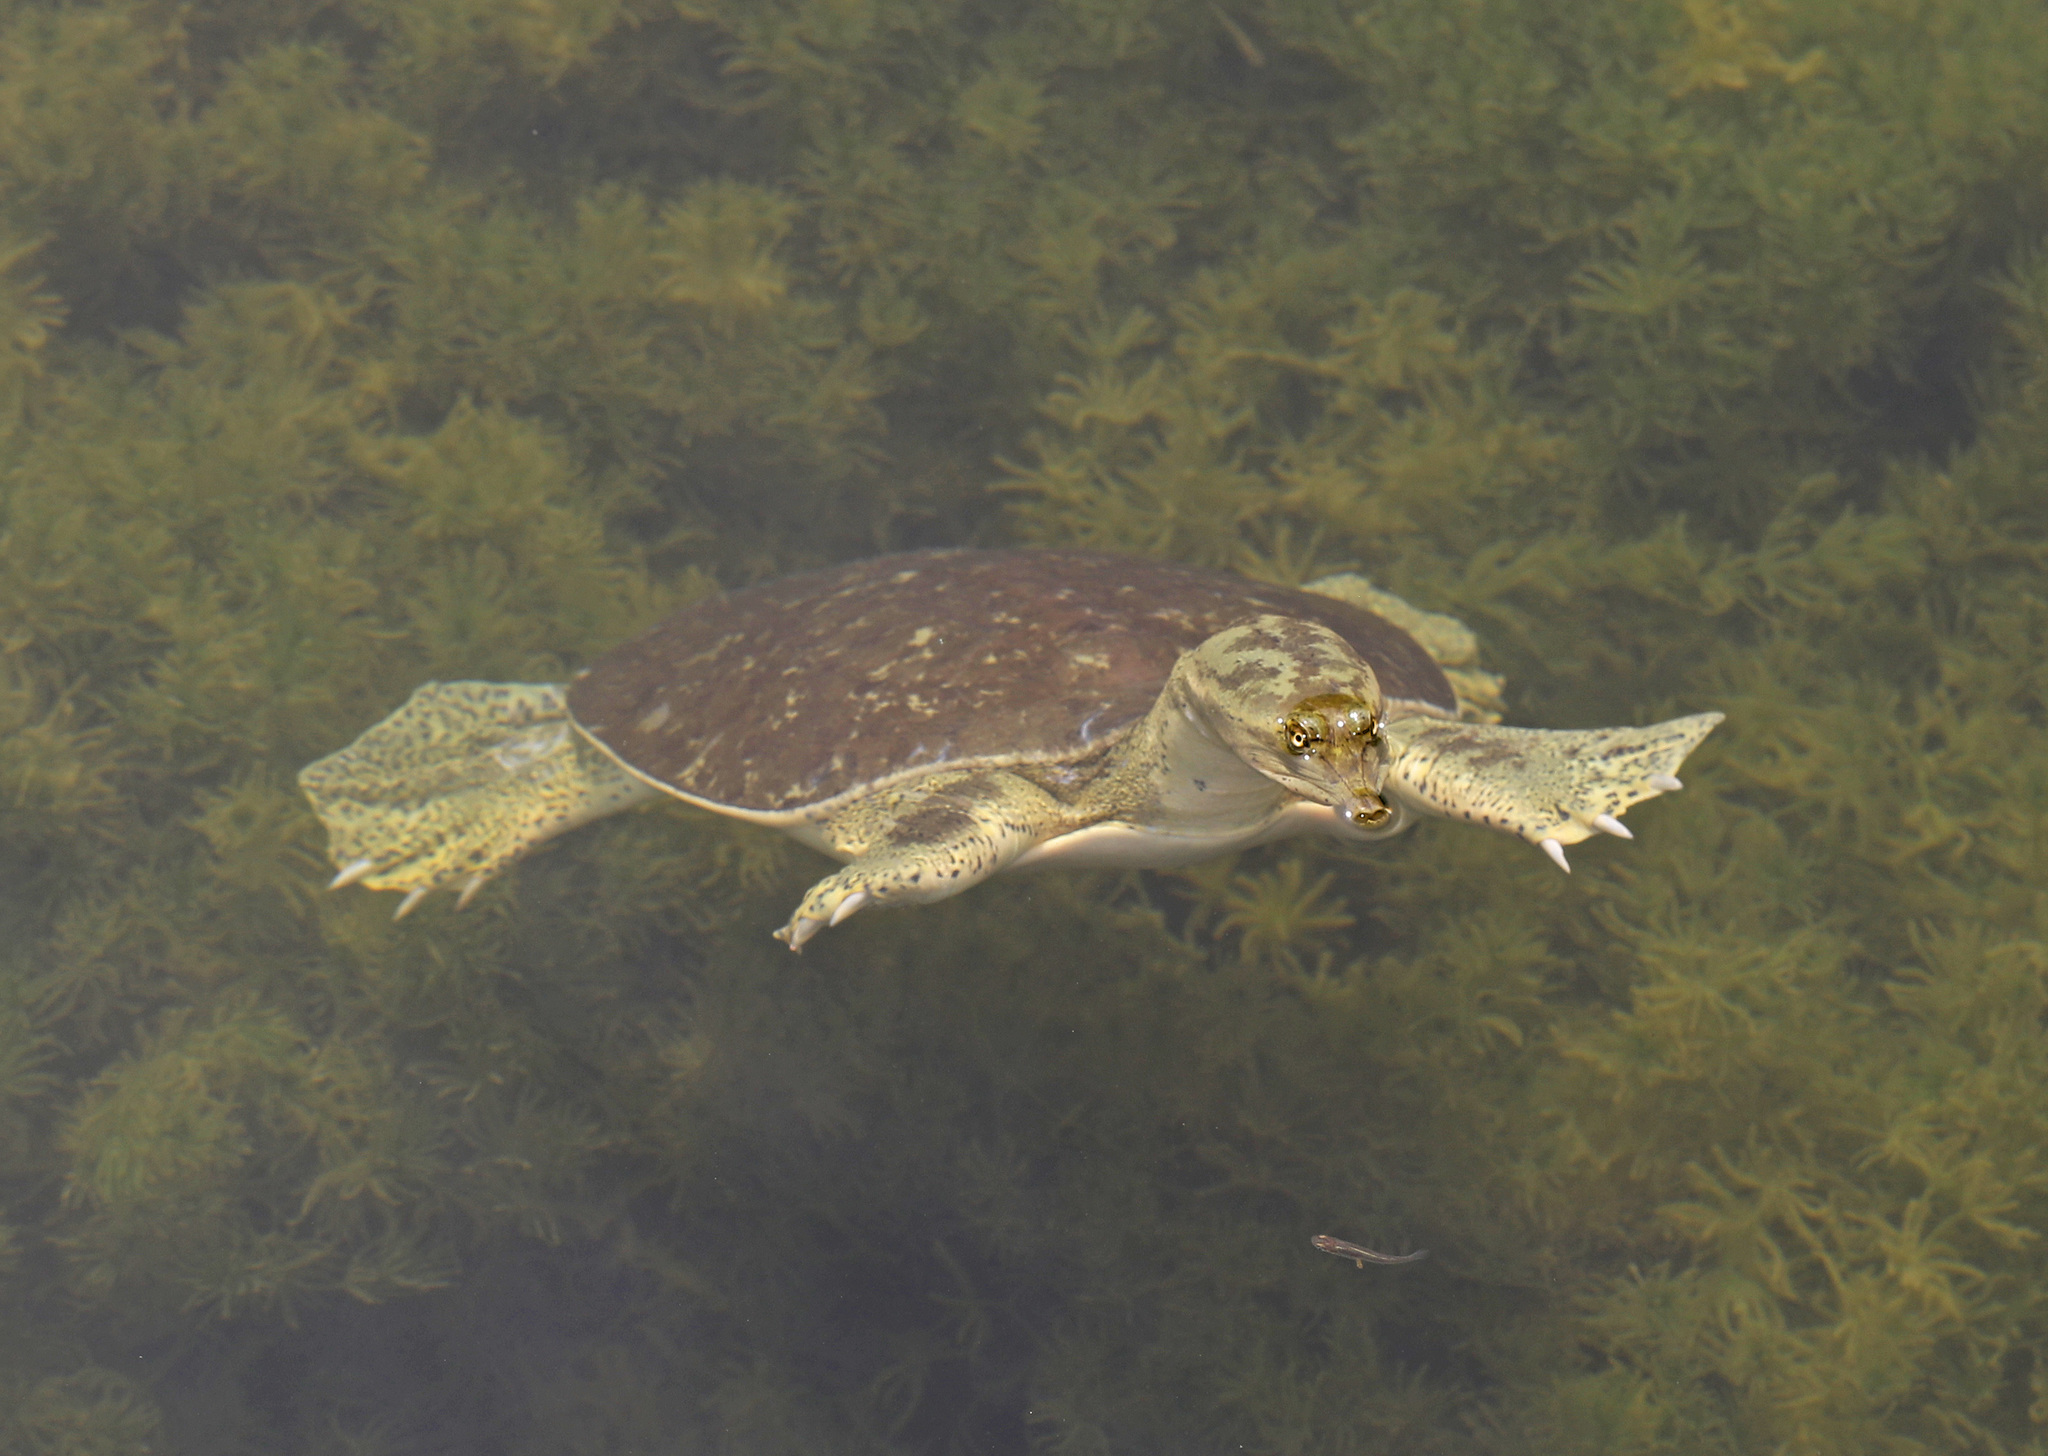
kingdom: Animalia
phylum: Chordata
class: Testudines
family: Trionychidae
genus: Apalone
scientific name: Apalone spinifera
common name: Spiny softshell turtle
